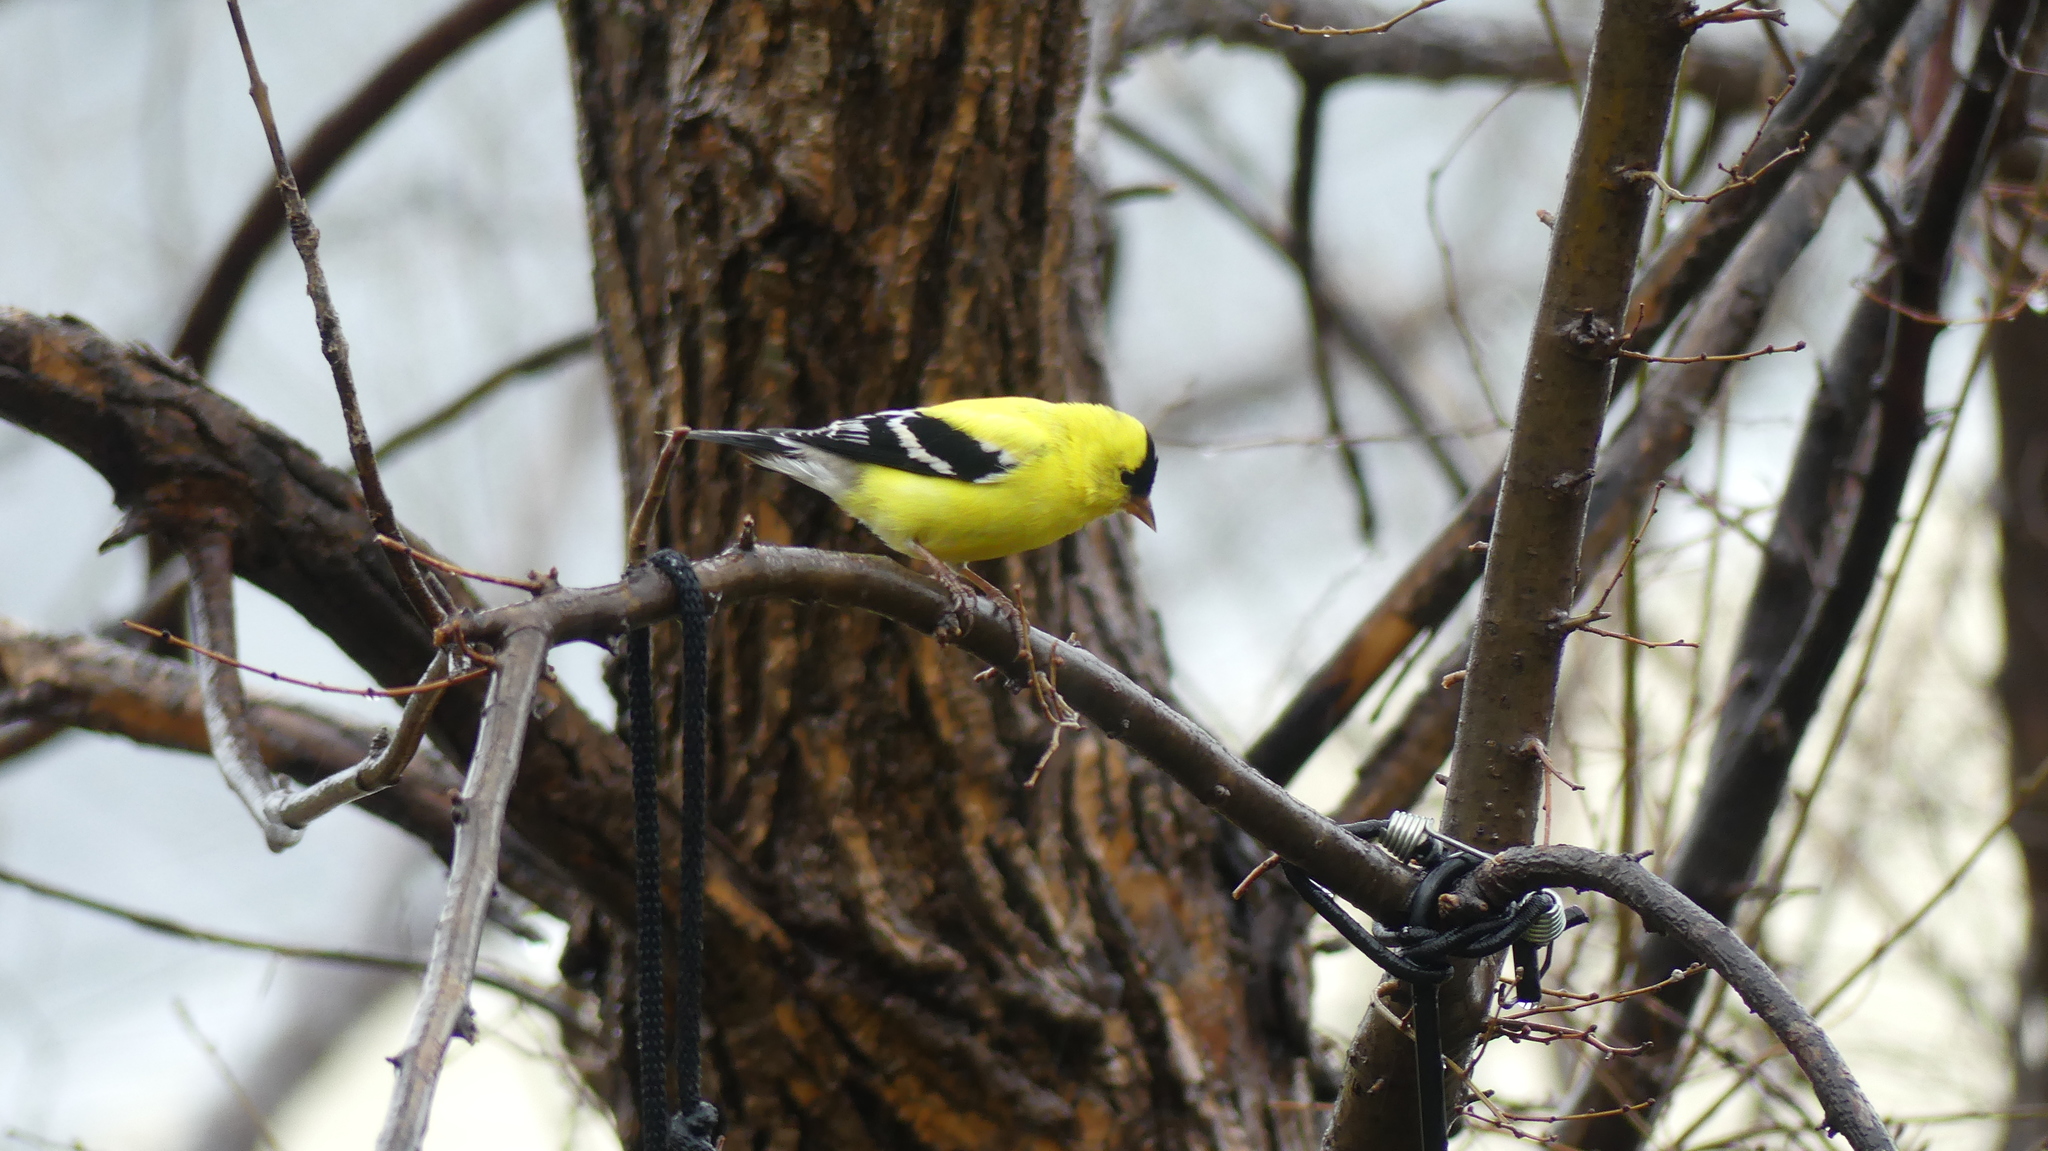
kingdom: Animalia
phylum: Chordata
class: Aves
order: Passeriformes
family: Fringillidae
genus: Spinus
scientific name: Spinus tristis
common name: American goldfinch
